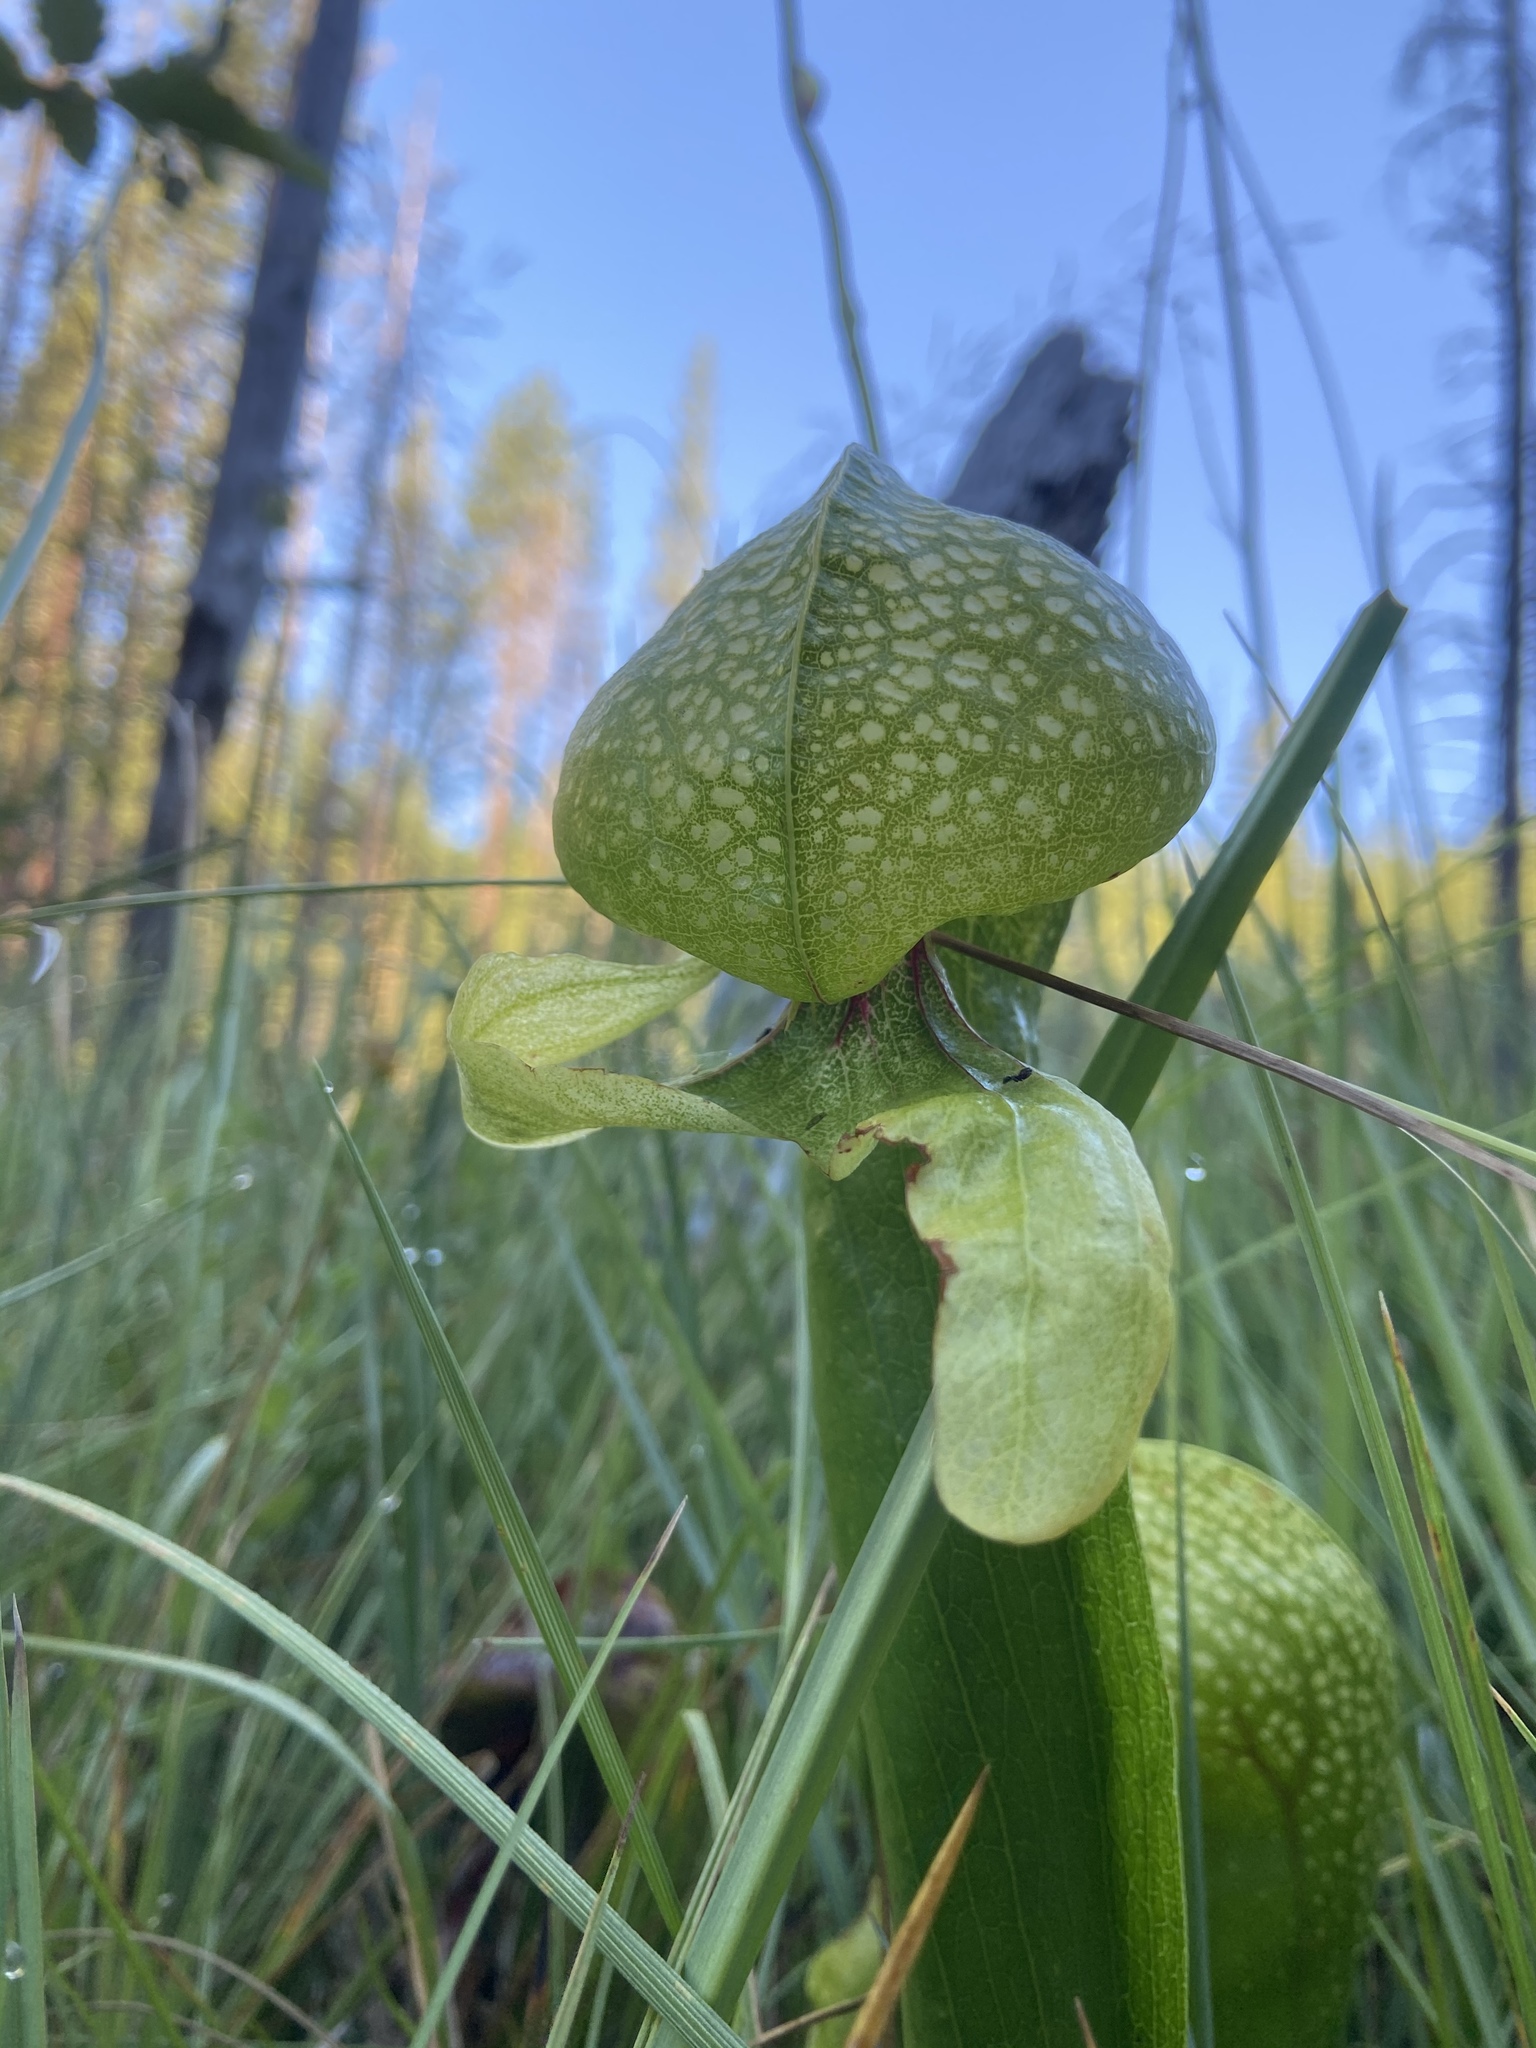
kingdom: Plantae
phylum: Tracheophyta
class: Magnoliopsida
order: Ericales
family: Sarraceniaceae
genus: Darlingtonia
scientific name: Darlingtonia californica
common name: California pitcher plant
